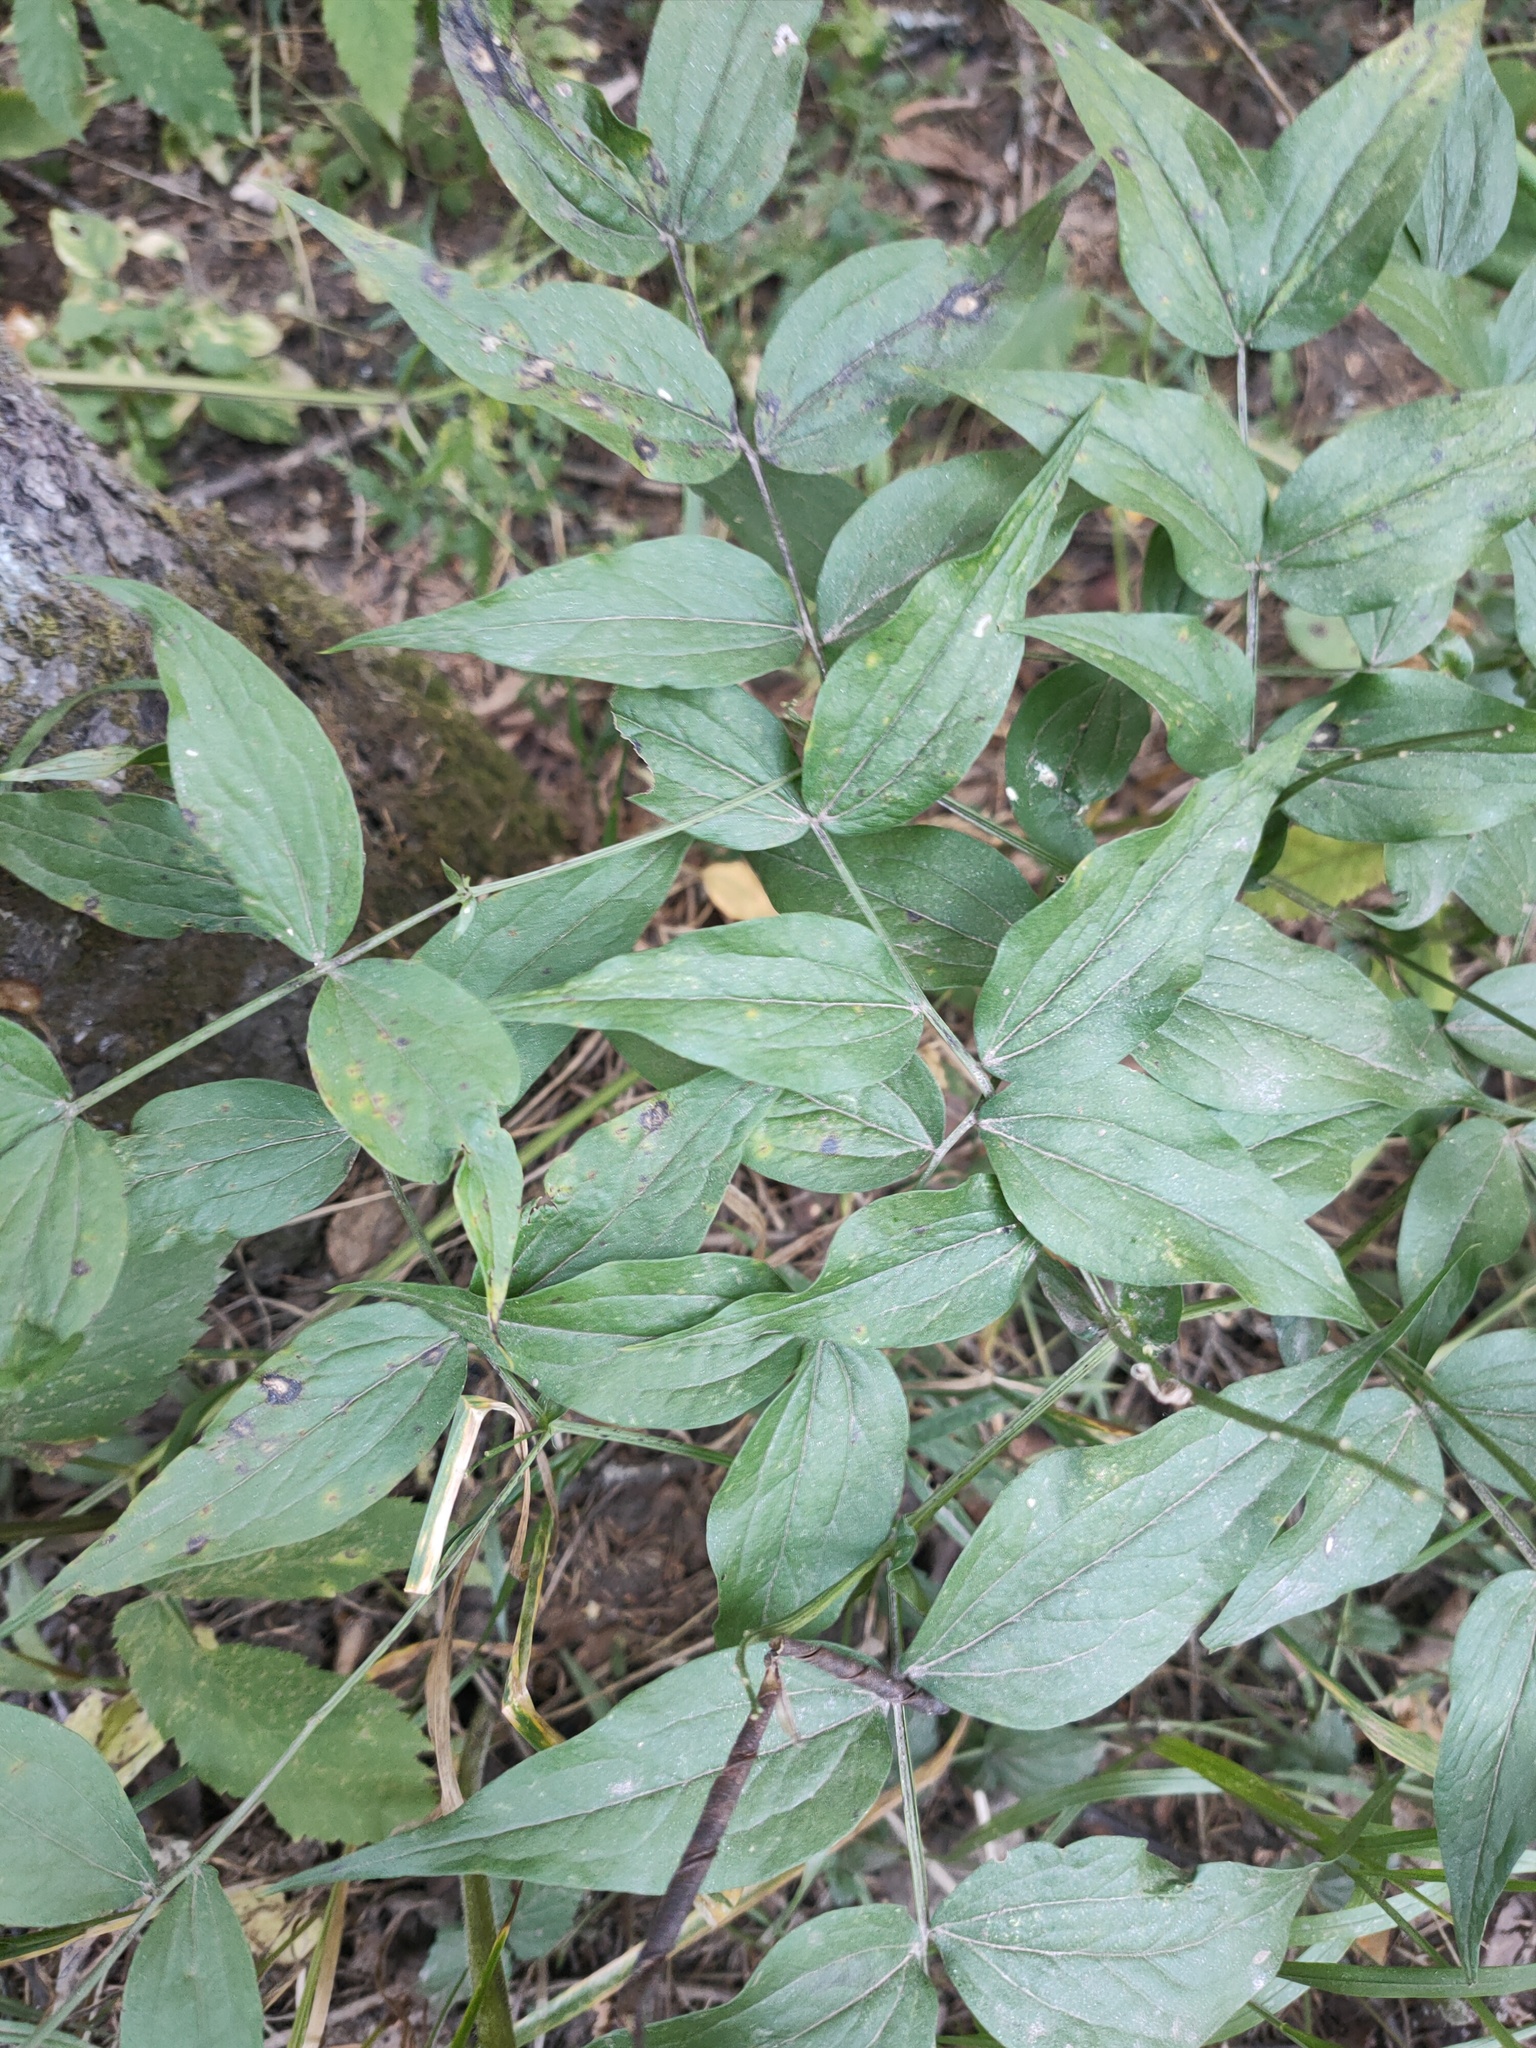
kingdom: Plantae
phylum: Tracheophyta
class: Magnoliopsida
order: Fabales
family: Fabaceae
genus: Lathyrus
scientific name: Lathyrus vernus
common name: Spring pea
